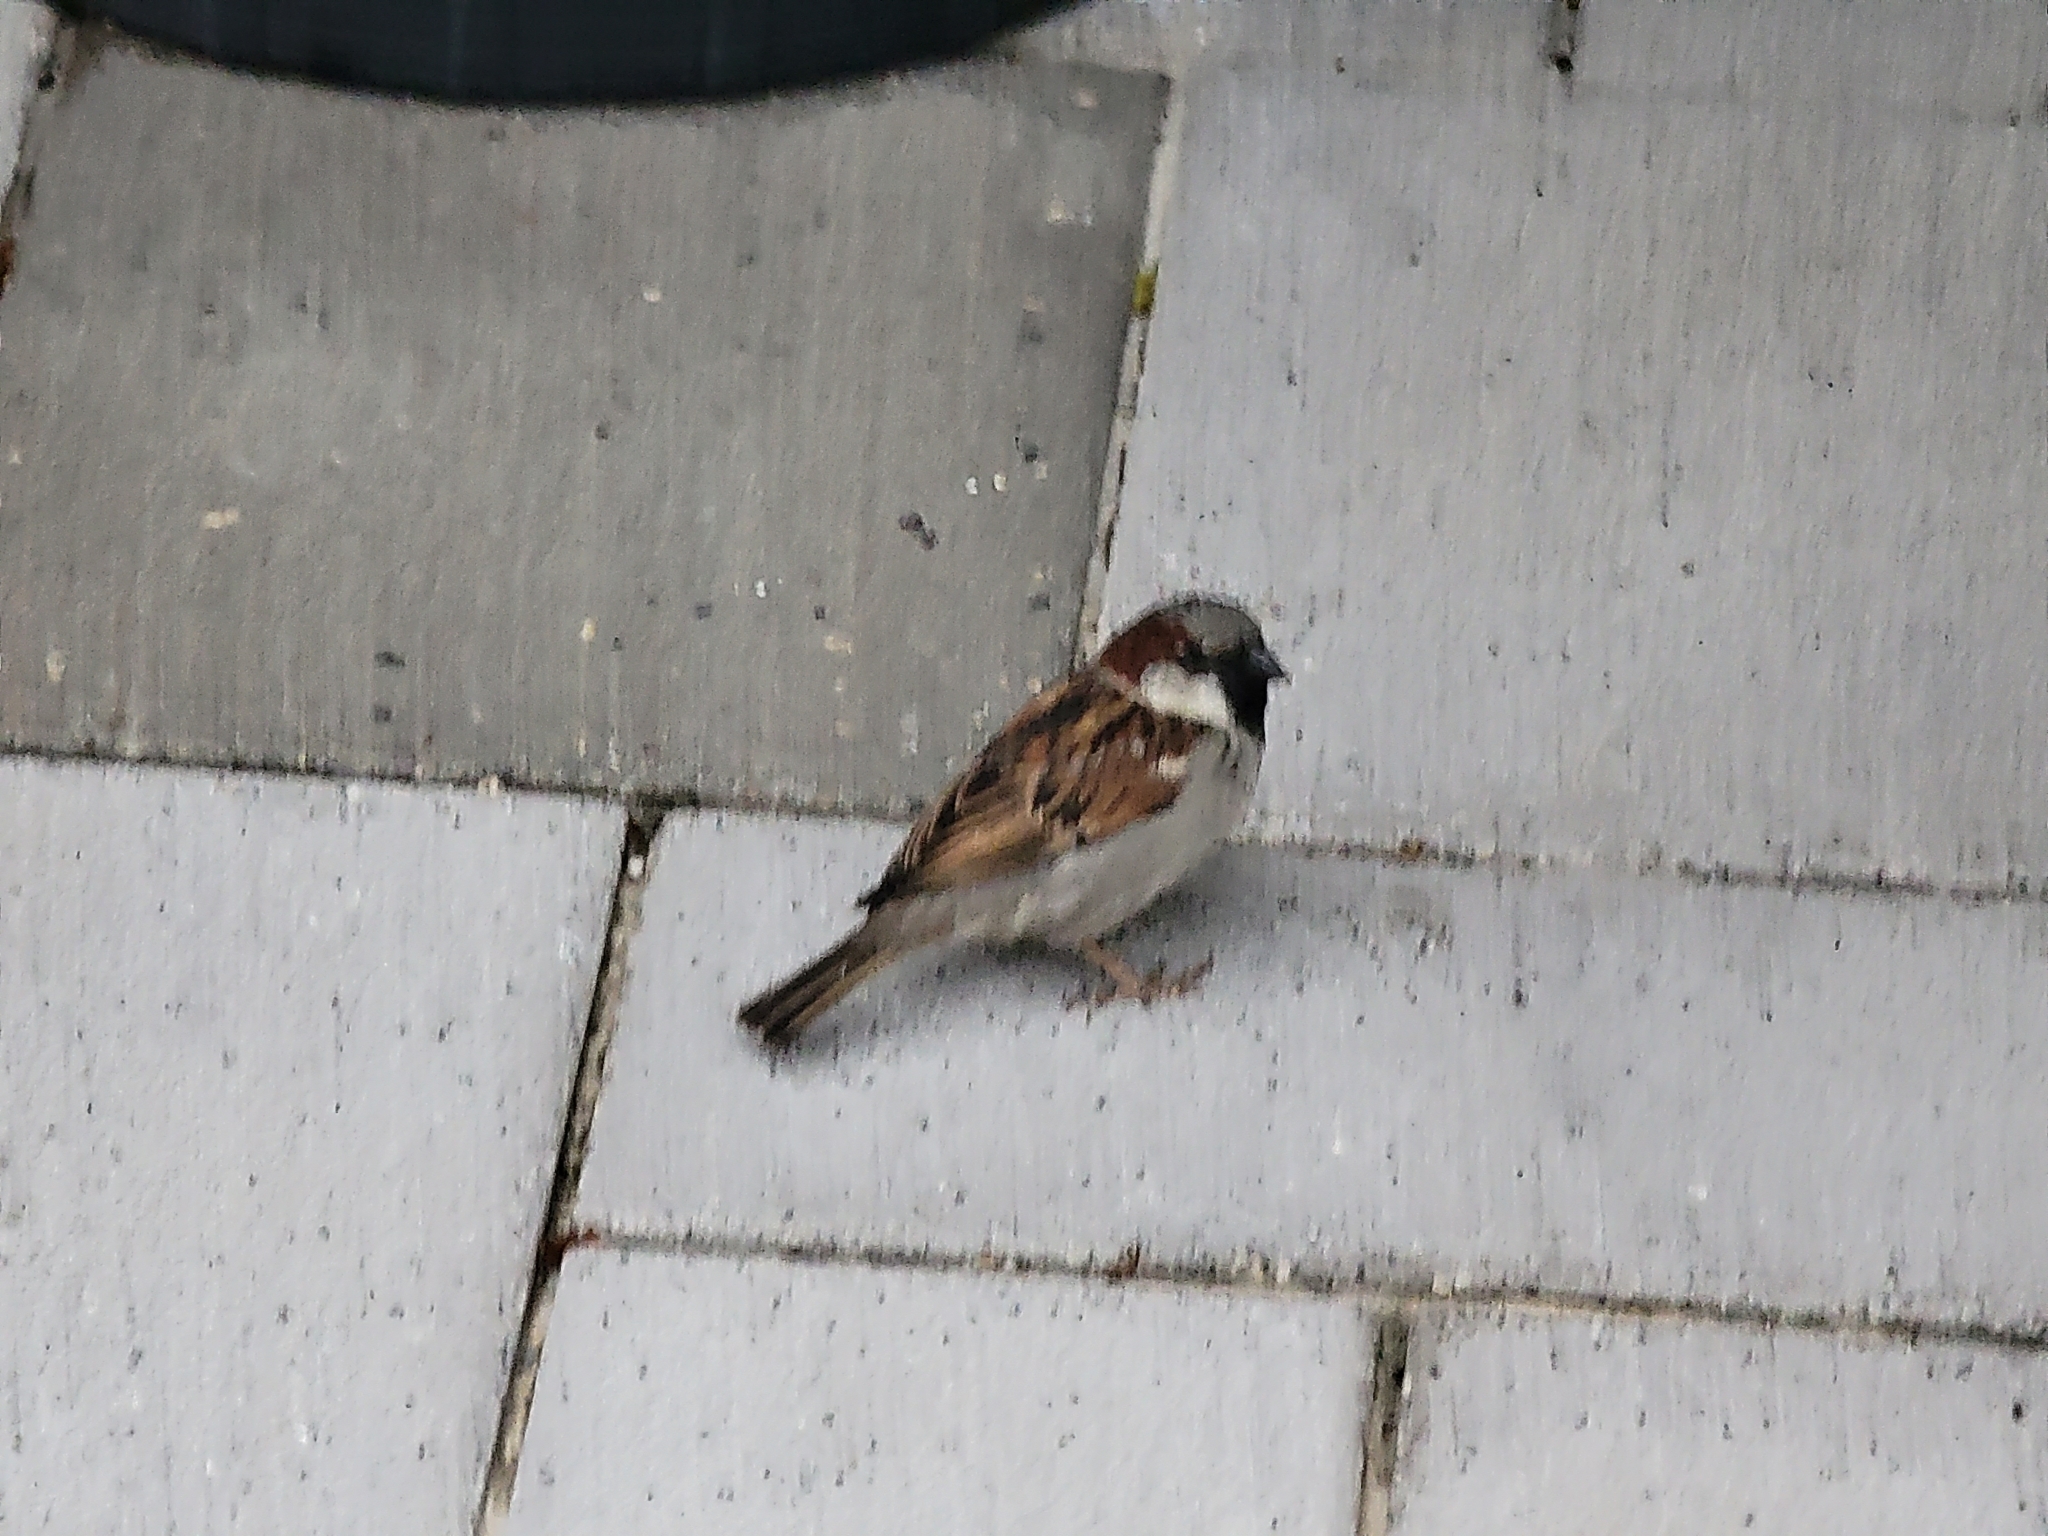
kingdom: Animalia
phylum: Chordata
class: Aves
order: Passeriformes
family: Passeridae
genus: Passer
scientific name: Passer domesticus
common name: House sparrow
